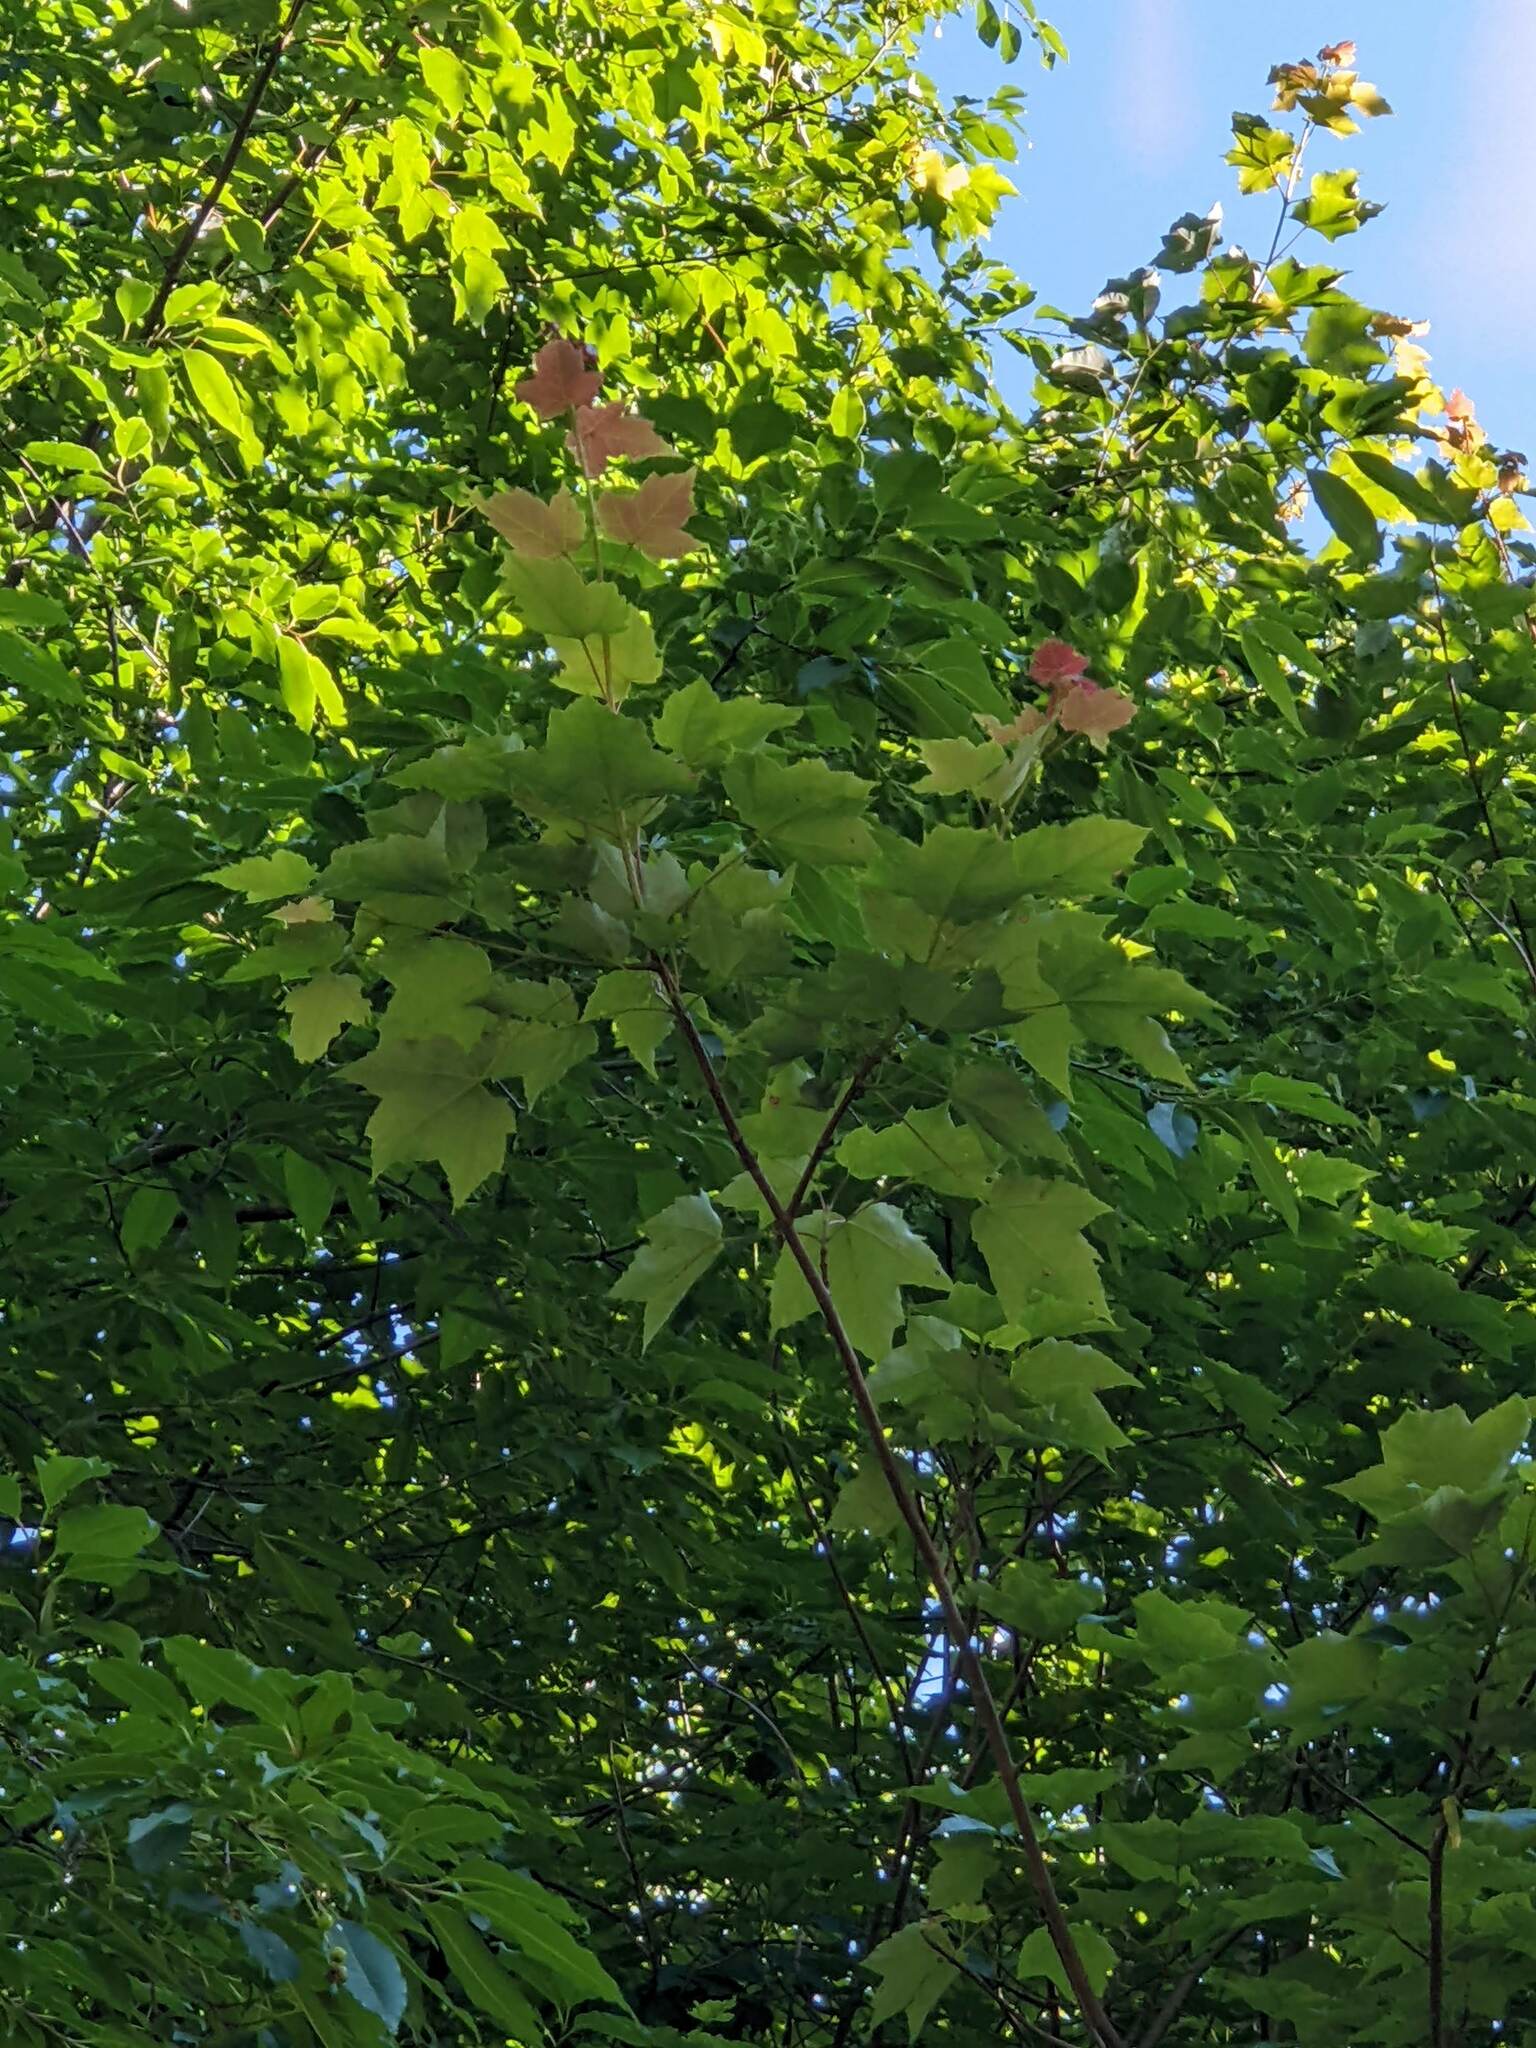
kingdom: Plantae
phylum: Tracheophyta
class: Magnoliopsida
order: Sapindales
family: Sapindaceae
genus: Acer
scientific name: Acer rubrum
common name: Red maple
